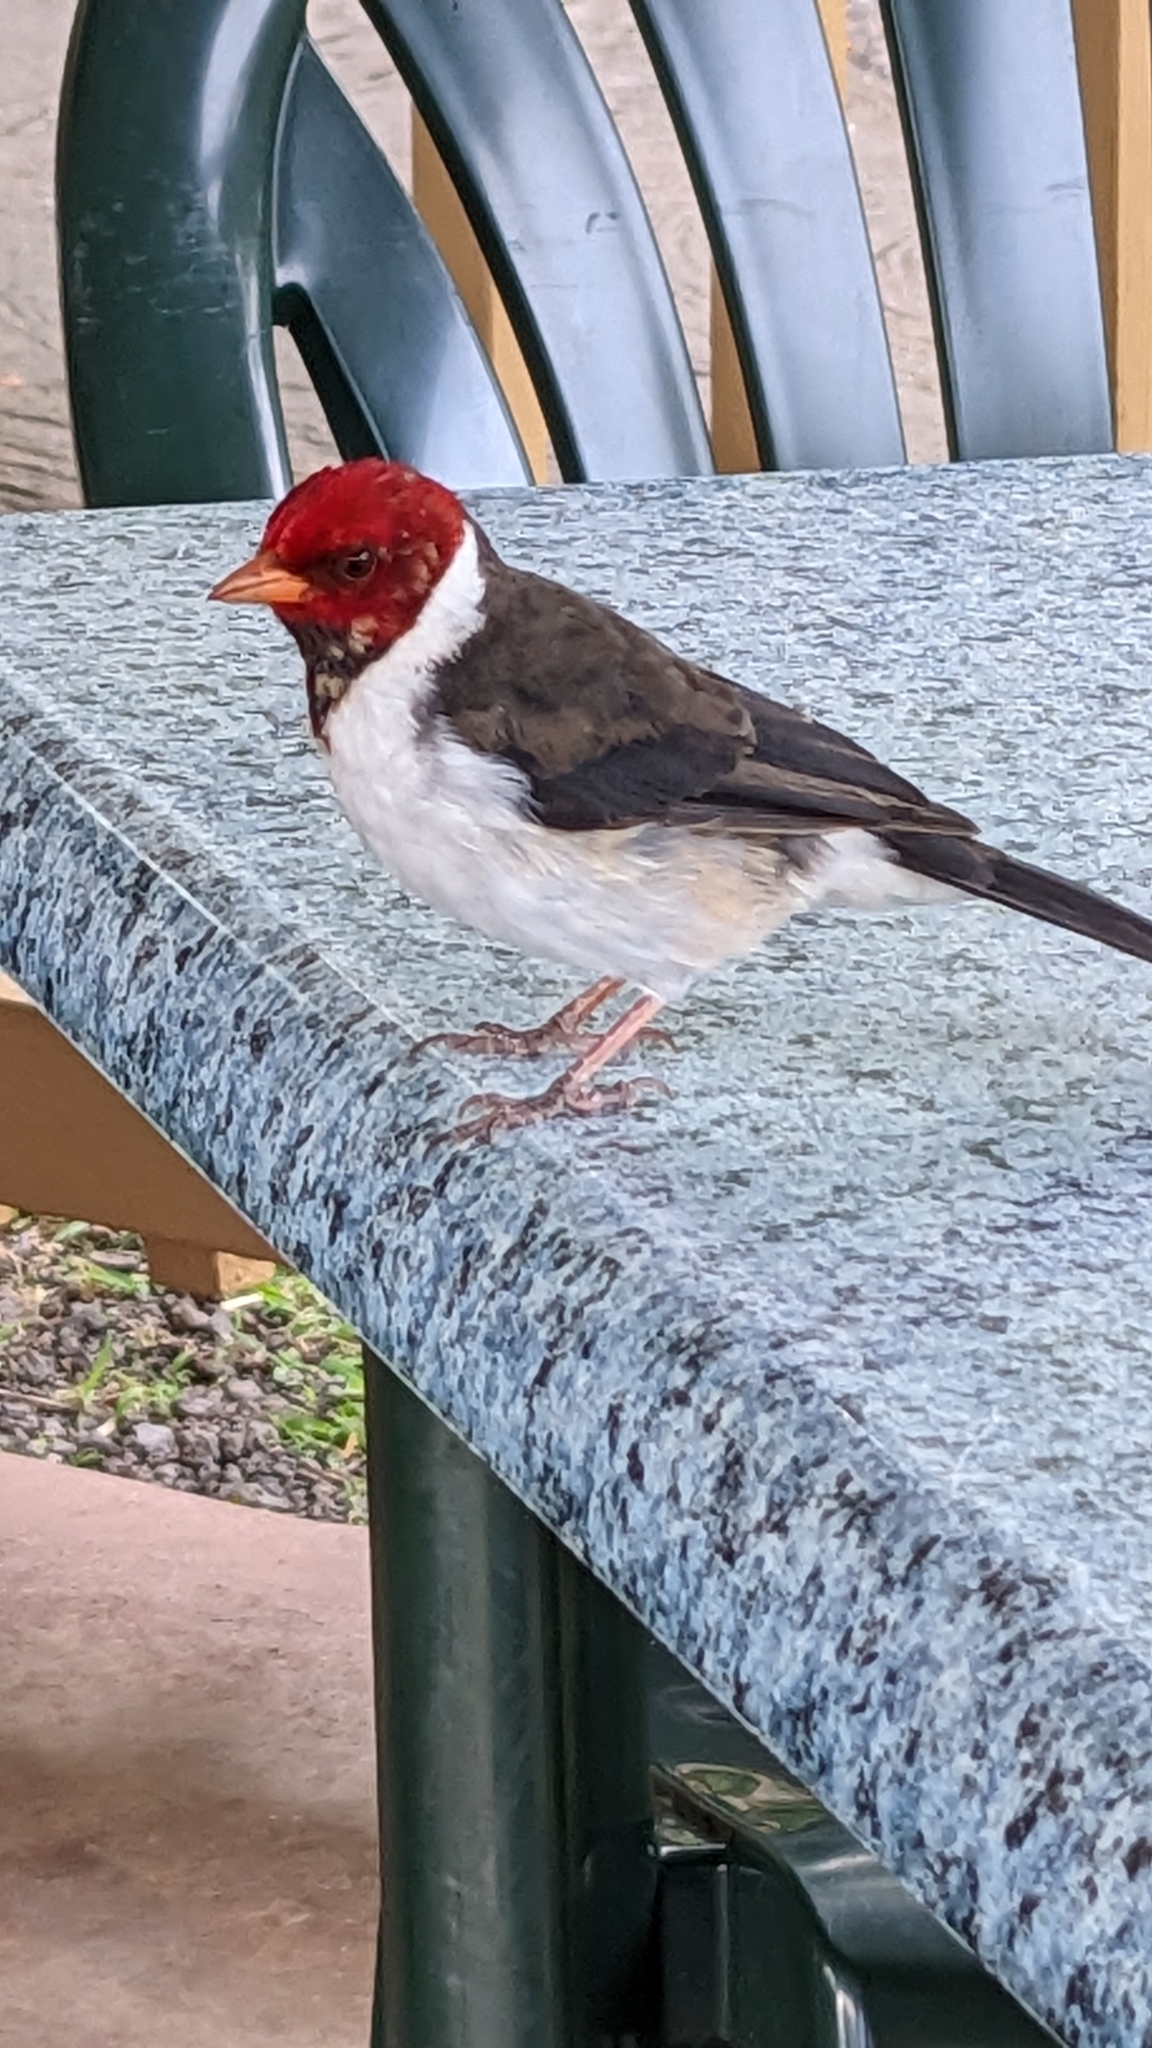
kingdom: Animalia
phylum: Chordata
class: Aves
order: Passeriformes
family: Thraupidae
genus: Paroaria
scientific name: Paroaria capitata
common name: Yellow-billed cardinal
